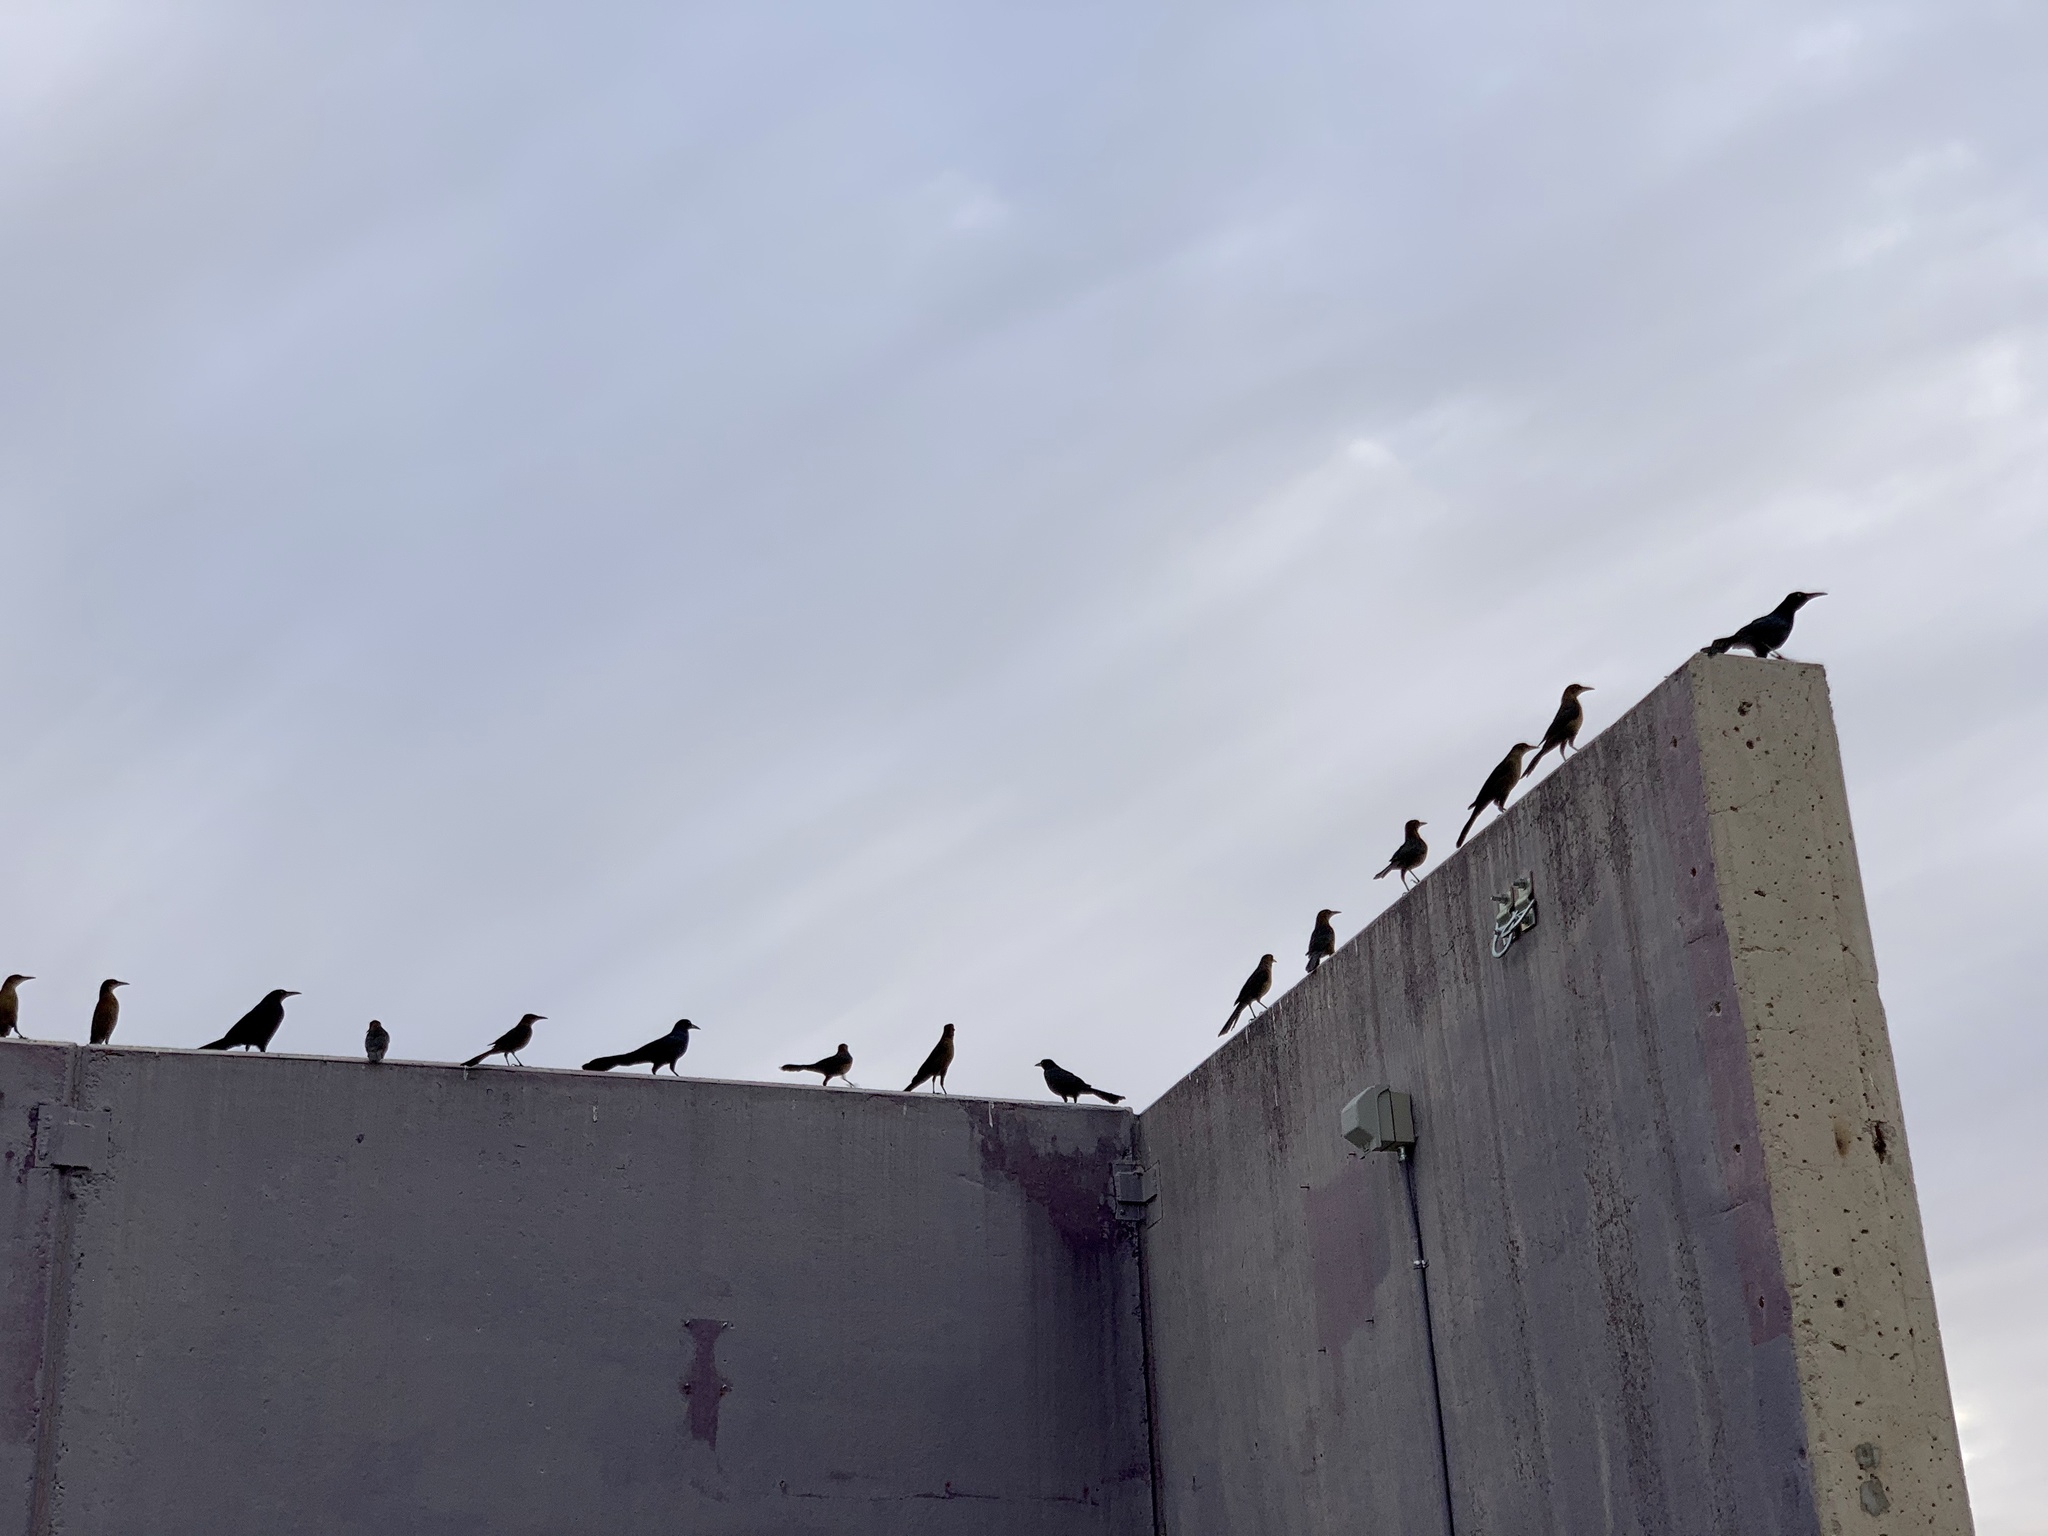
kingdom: Animalia
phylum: Chordata
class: Aves
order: Passeriformes
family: Icteridae
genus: Quiscalus
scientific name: Quiscalus mexicanus
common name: Great-tailed grackle
